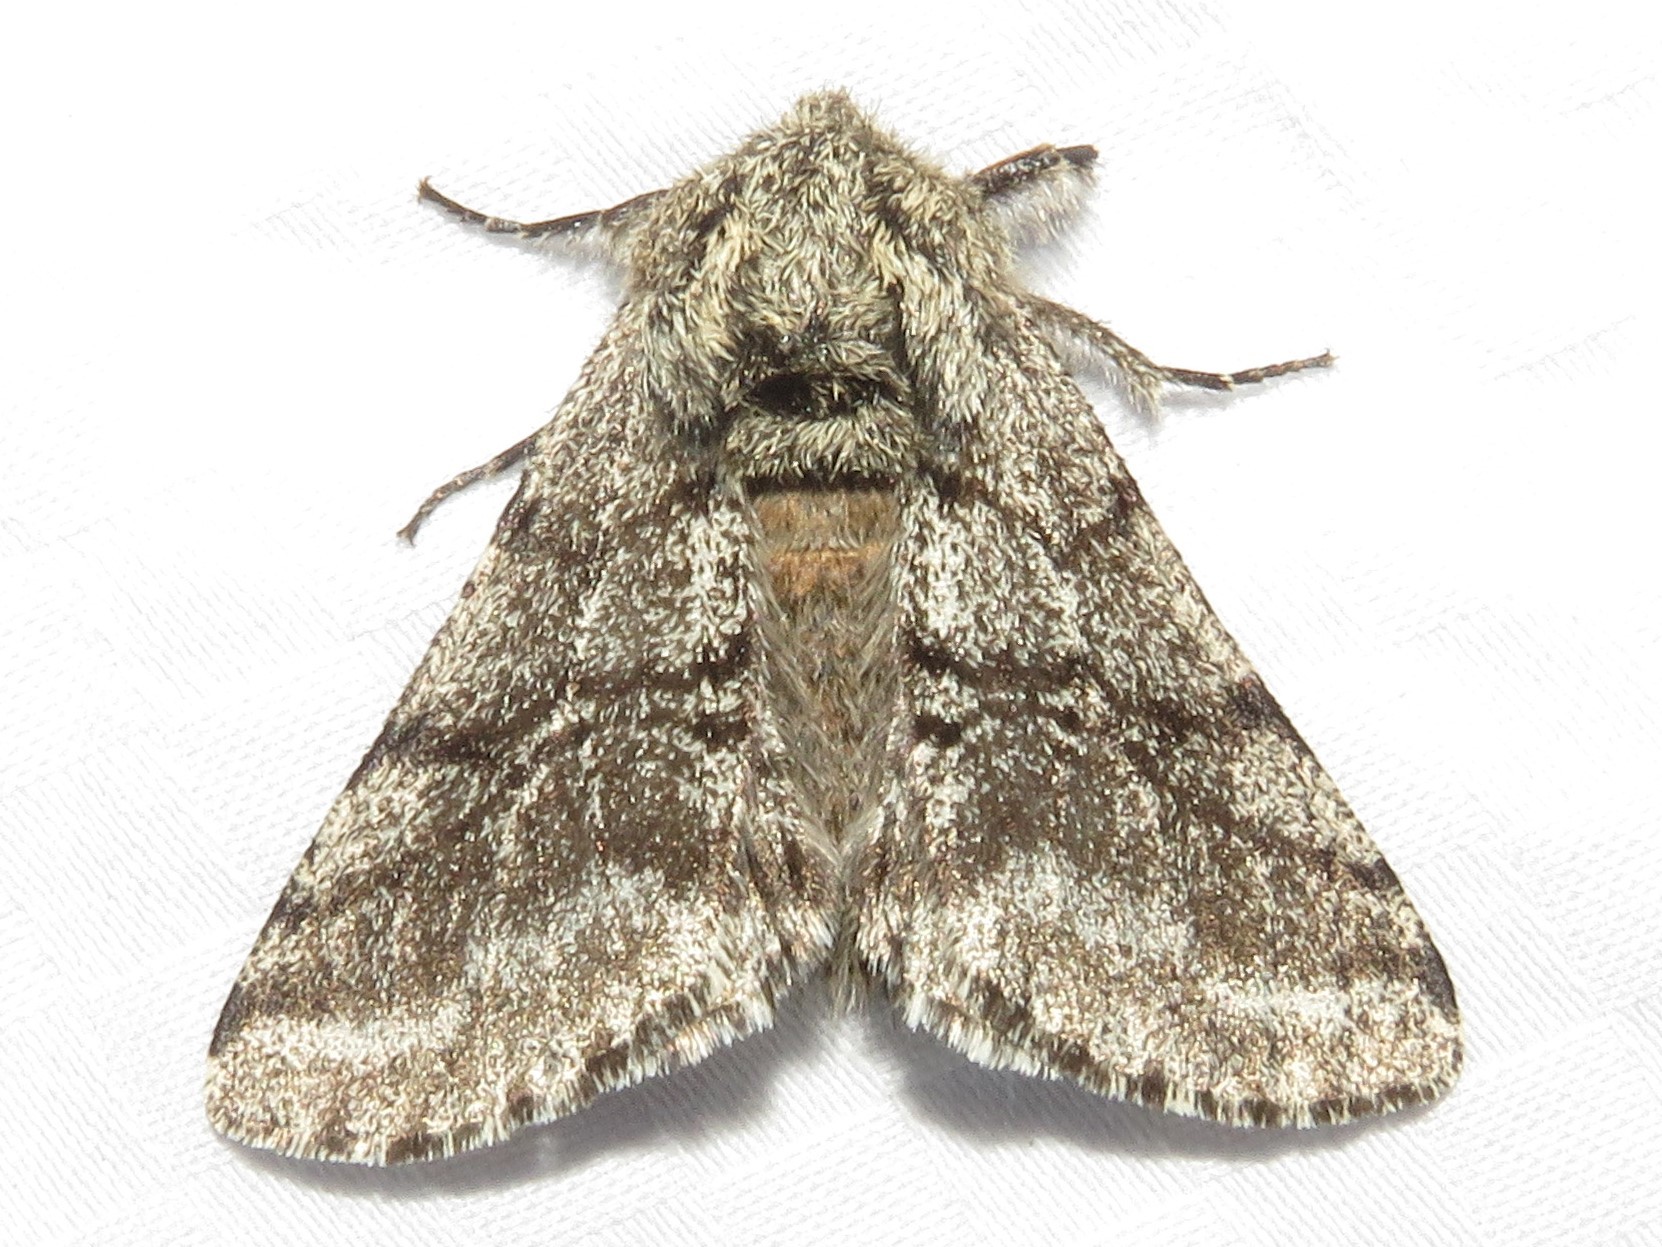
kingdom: Animalia
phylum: Arthropoda
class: Insecta
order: Lepidoptera
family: Geometridae
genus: Lycia
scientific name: Lycia ursaria
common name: Stout spanworm
